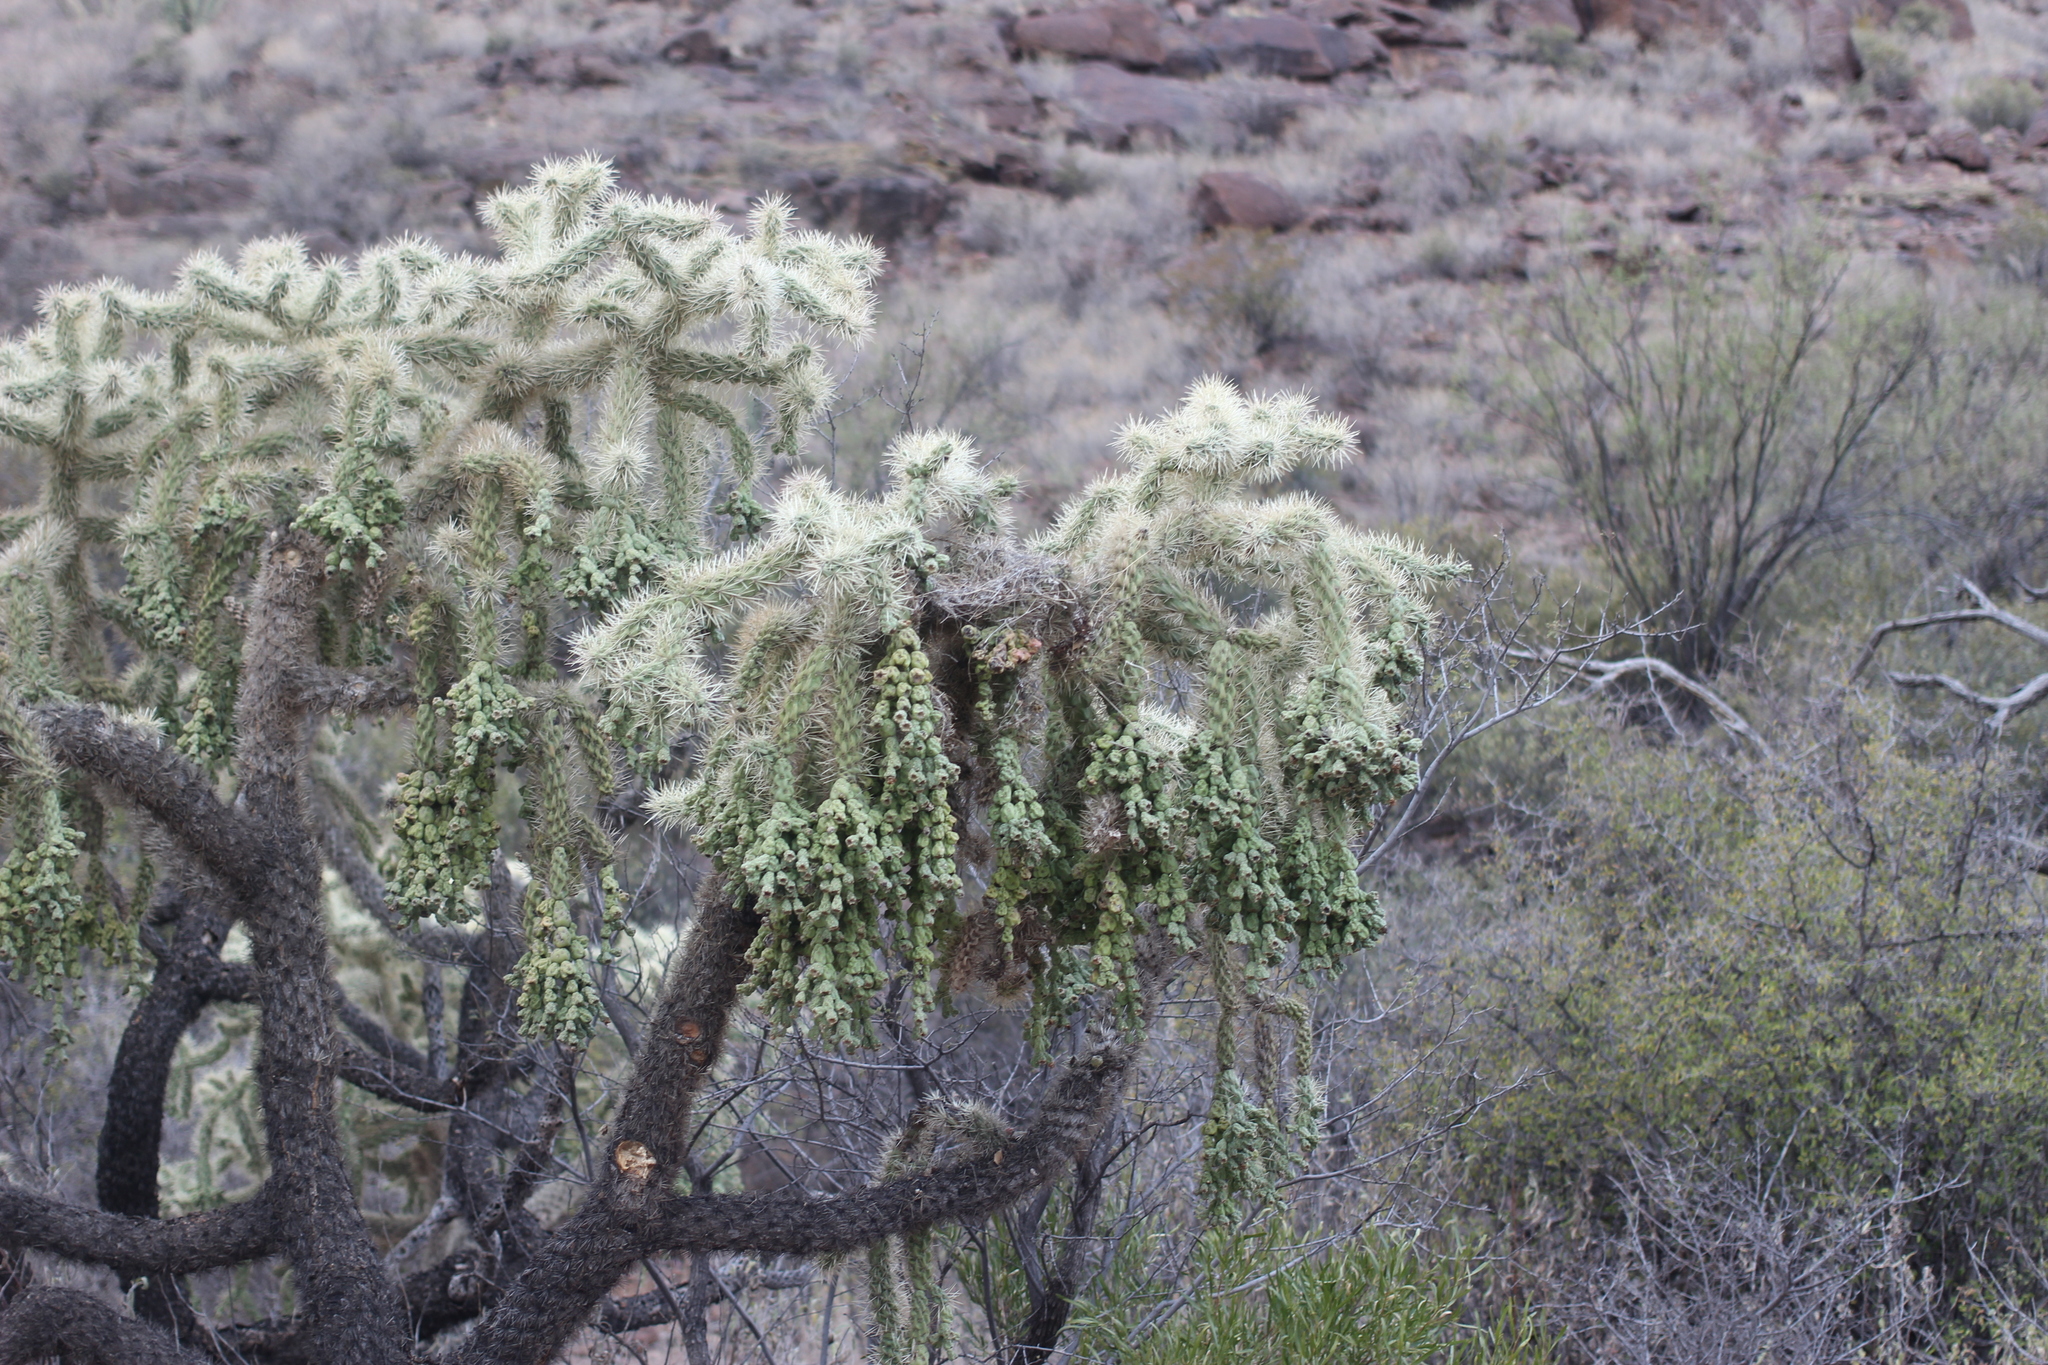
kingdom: Plantae
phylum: Tracheophyta
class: Magnoliopsida
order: Caryophyllales
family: Cactaceae
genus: Cylindropuntia
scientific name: Cylindropuntia fulgida
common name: Jumping cholla
